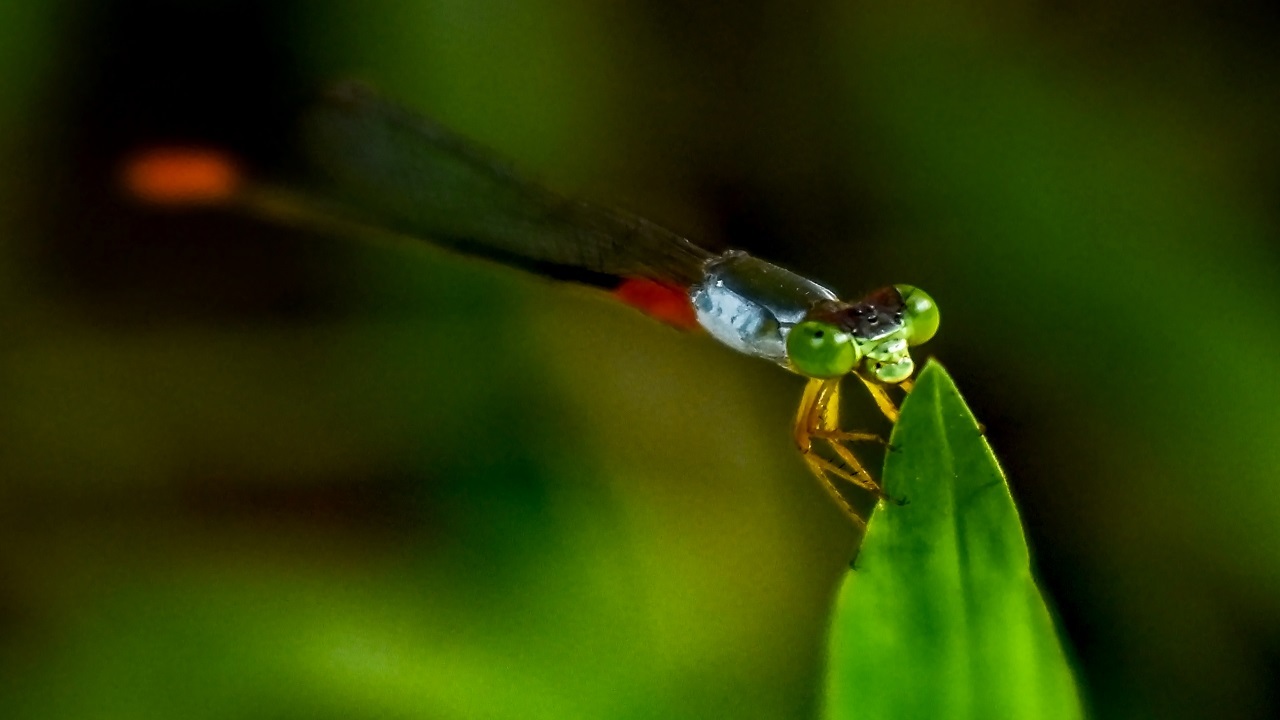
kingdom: Animalia
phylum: Arthropoda
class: Insecta
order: Odonata
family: Coenagrionidae
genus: Ceriagrion
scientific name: Ceriagrion cerinorubellum
